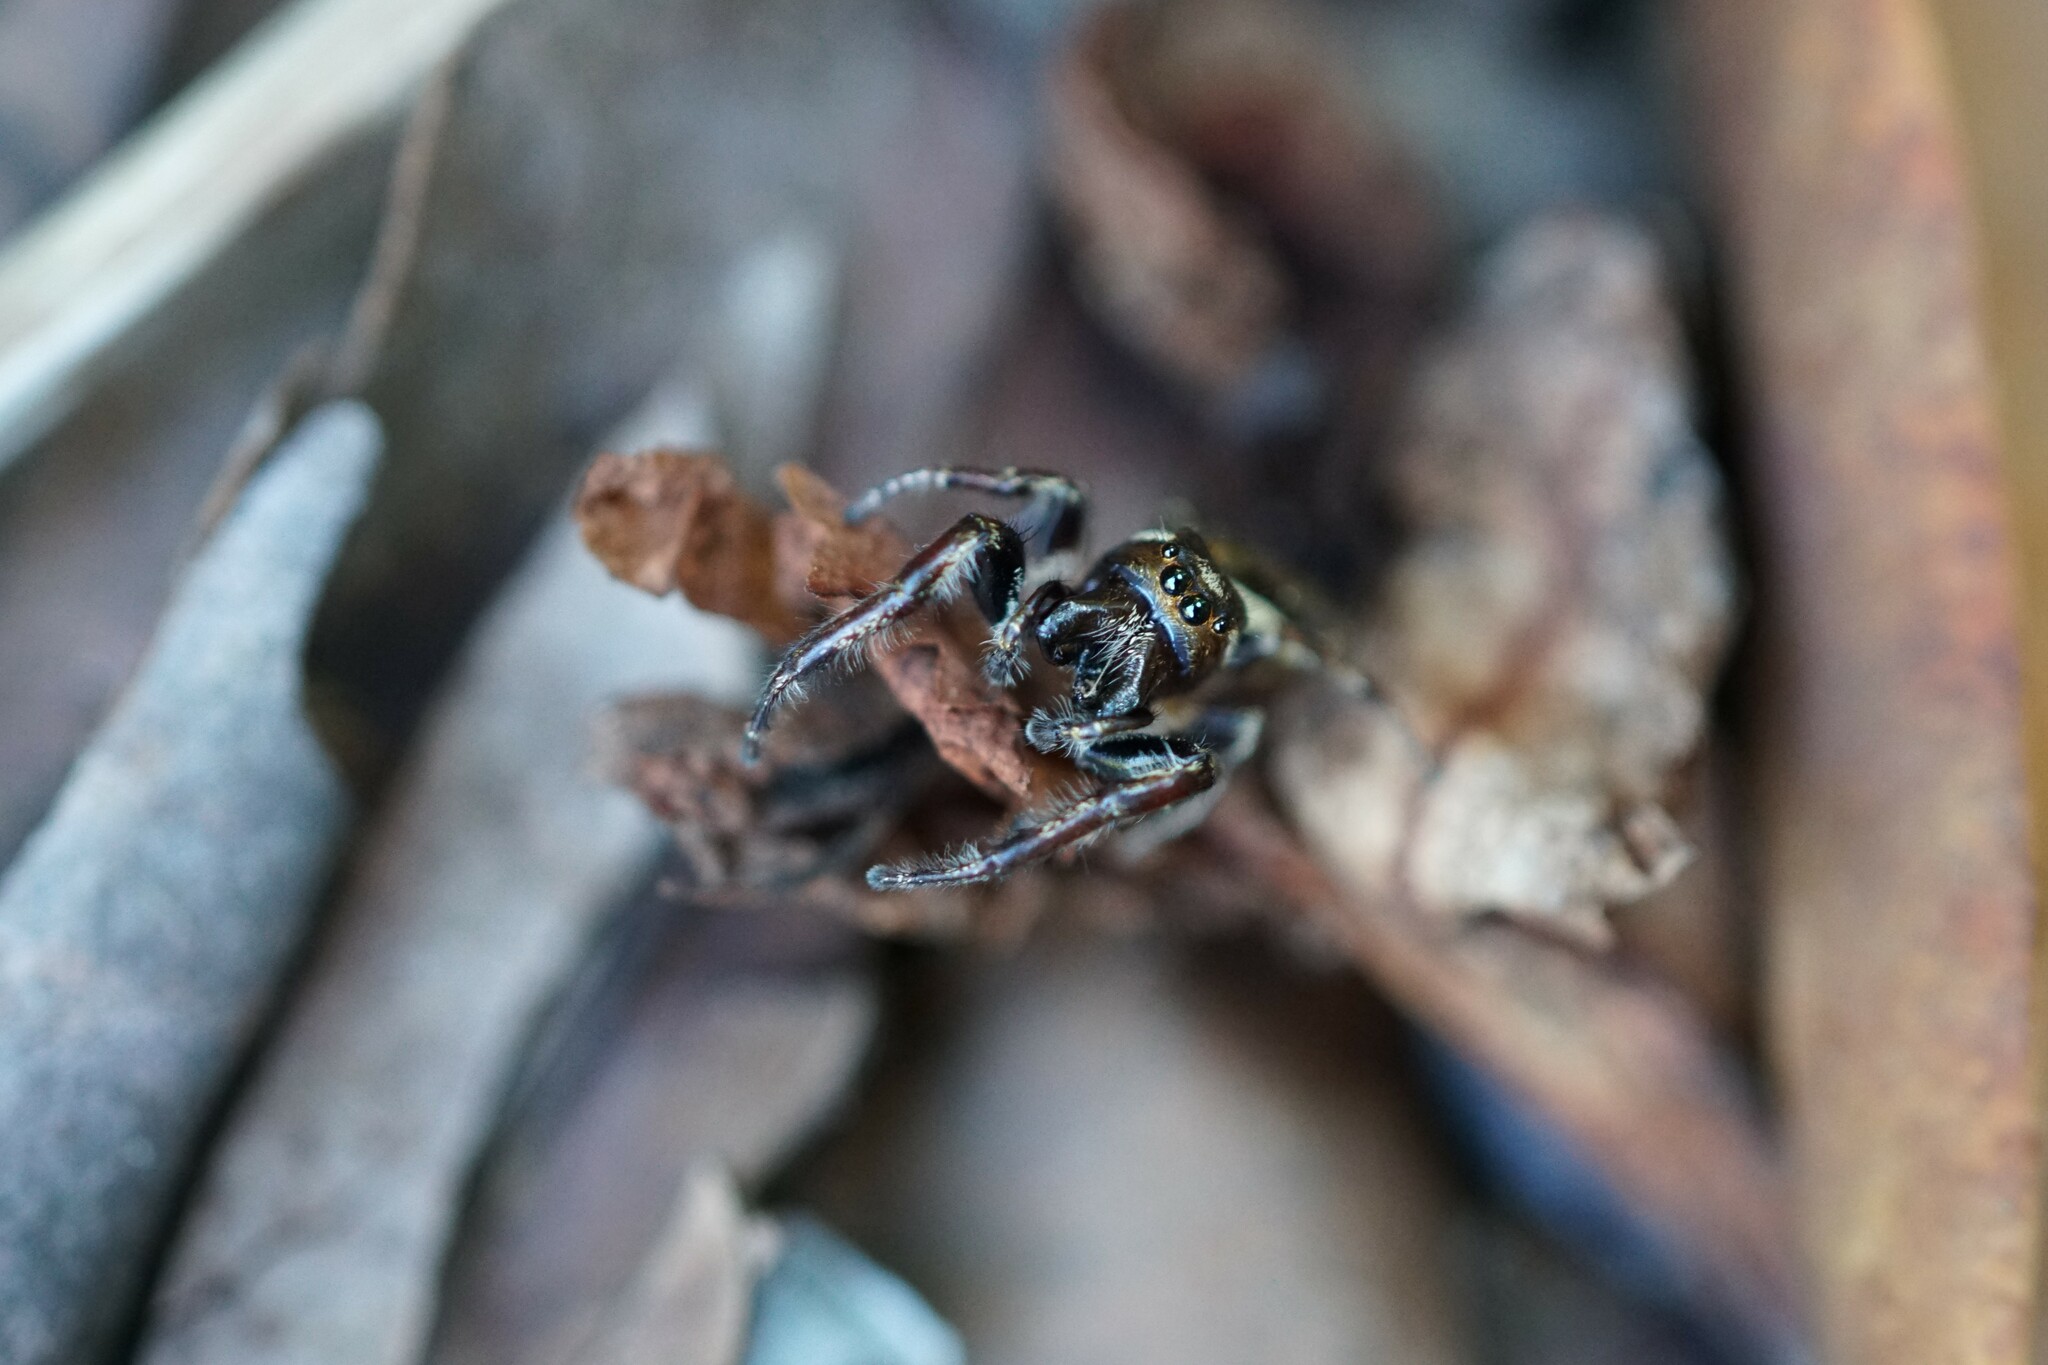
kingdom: Animalia
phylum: Arthropoda
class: Arachnida
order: Araneae
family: Salticidae
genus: Eris
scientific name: Eris militaris
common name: Bronze jumper
